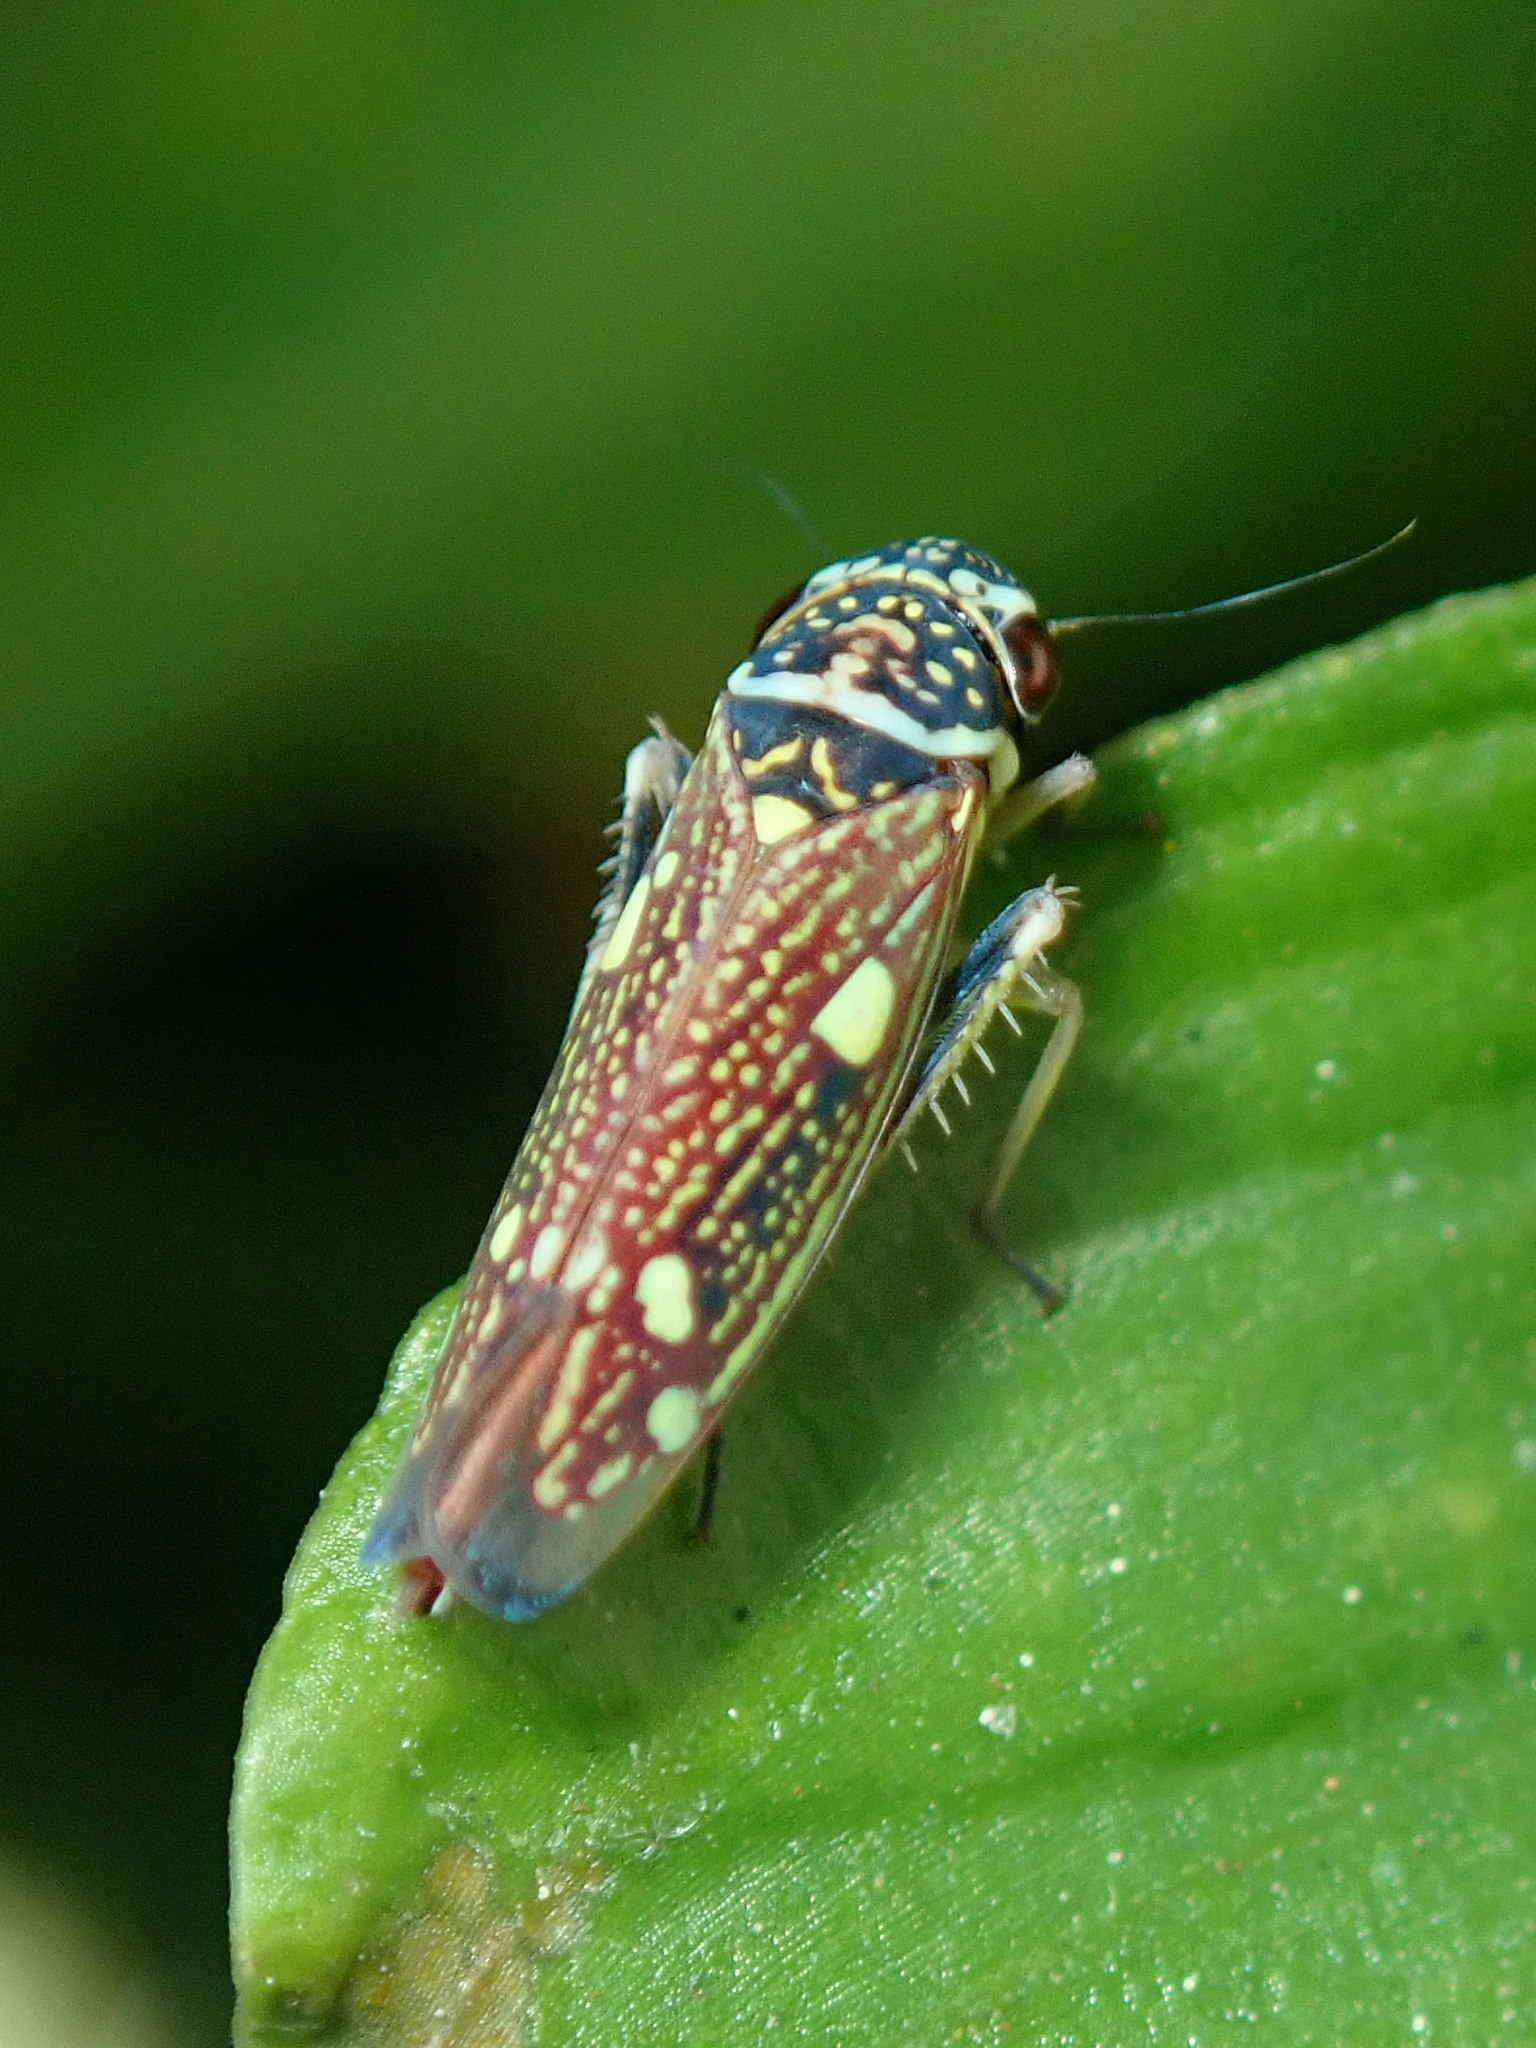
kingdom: Animalia
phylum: Arthropoda
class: Insecta
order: Hemiptera
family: Cicadellidae
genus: Macugonalia
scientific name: Macugonalia leucomelas
